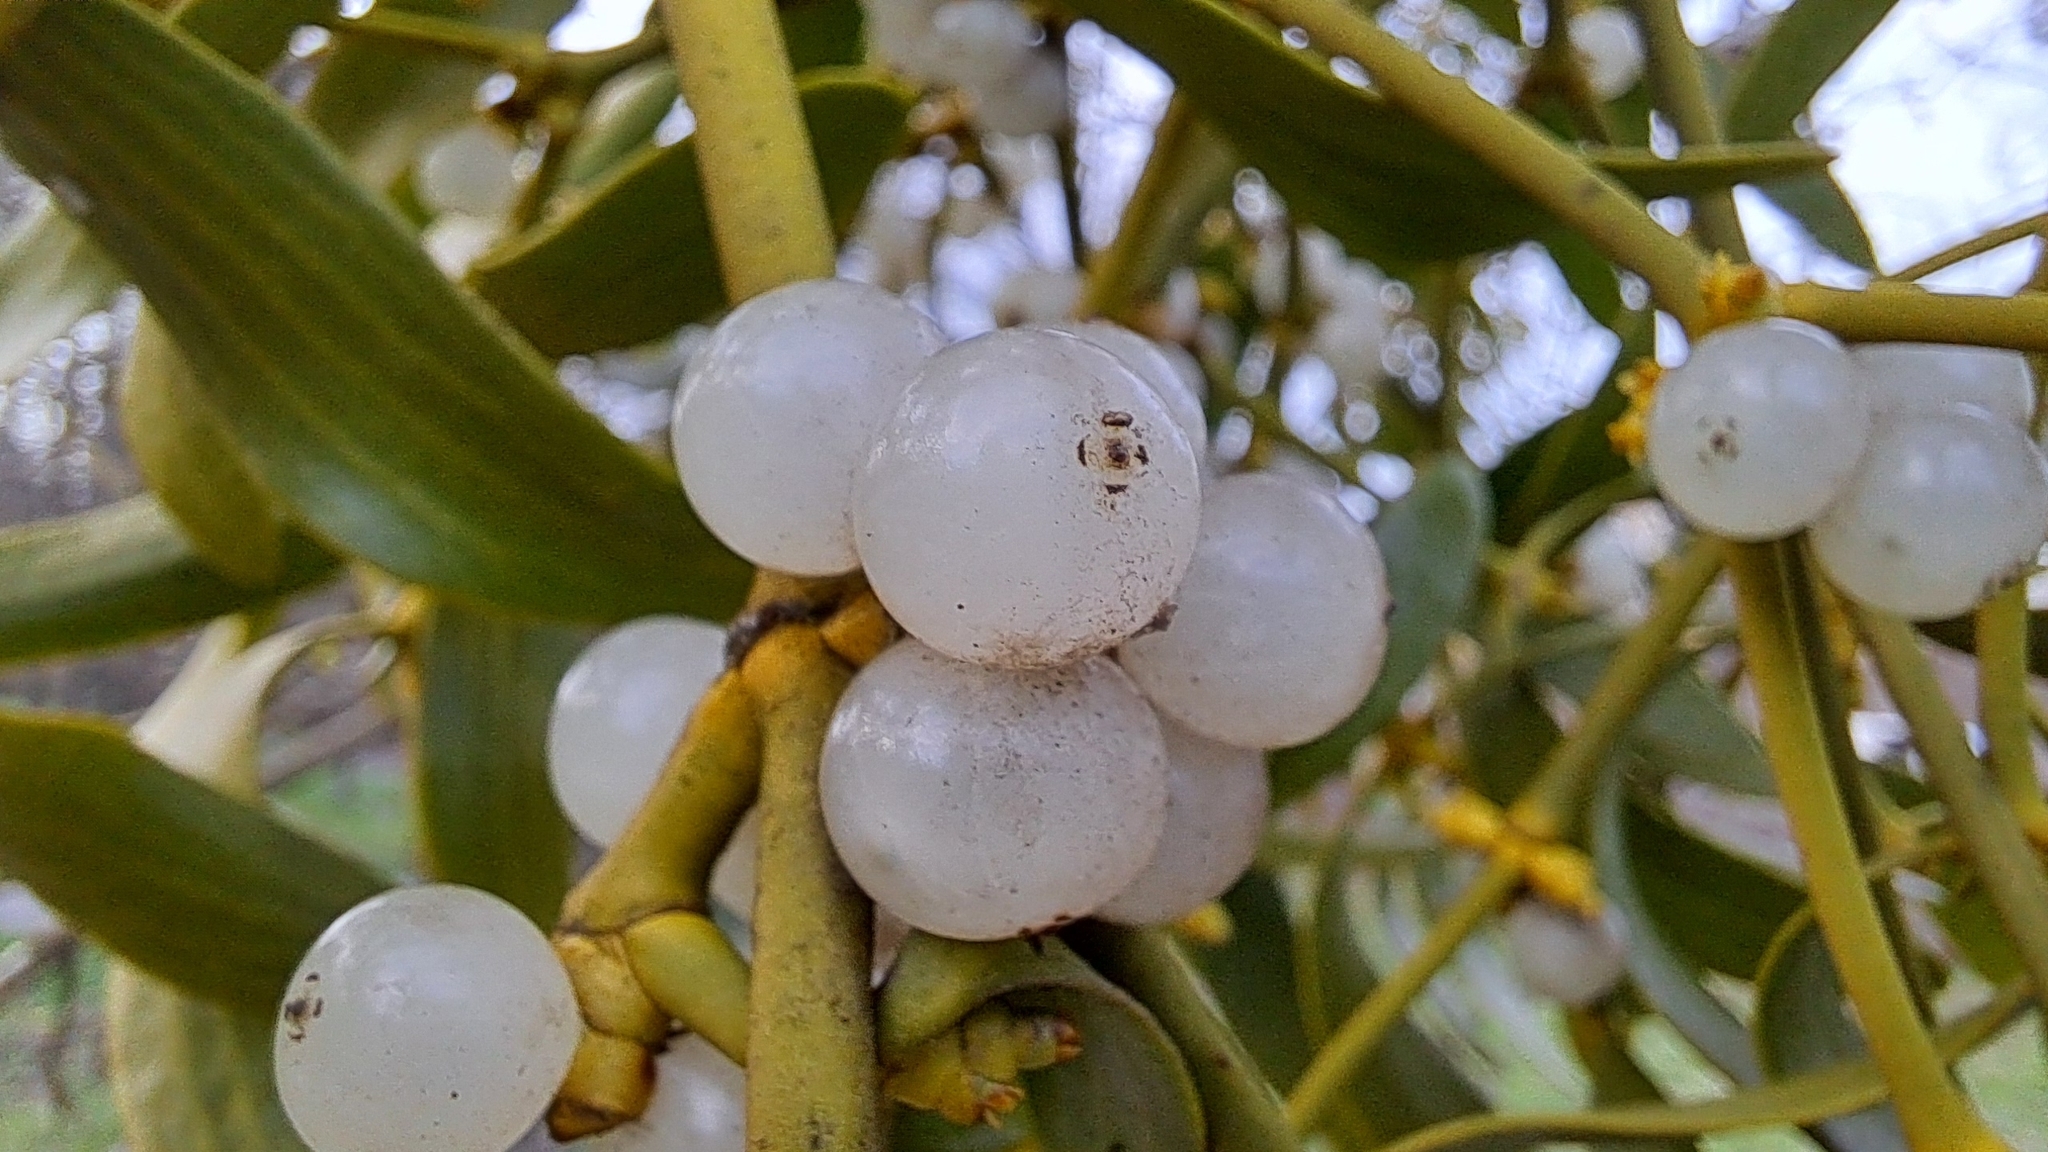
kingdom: Plantae
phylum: Tracheophyta
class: Magnoliopsida
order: Santalales
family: Viscaceae
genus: Viscum
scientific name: Viscum album
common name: Mistletoe
